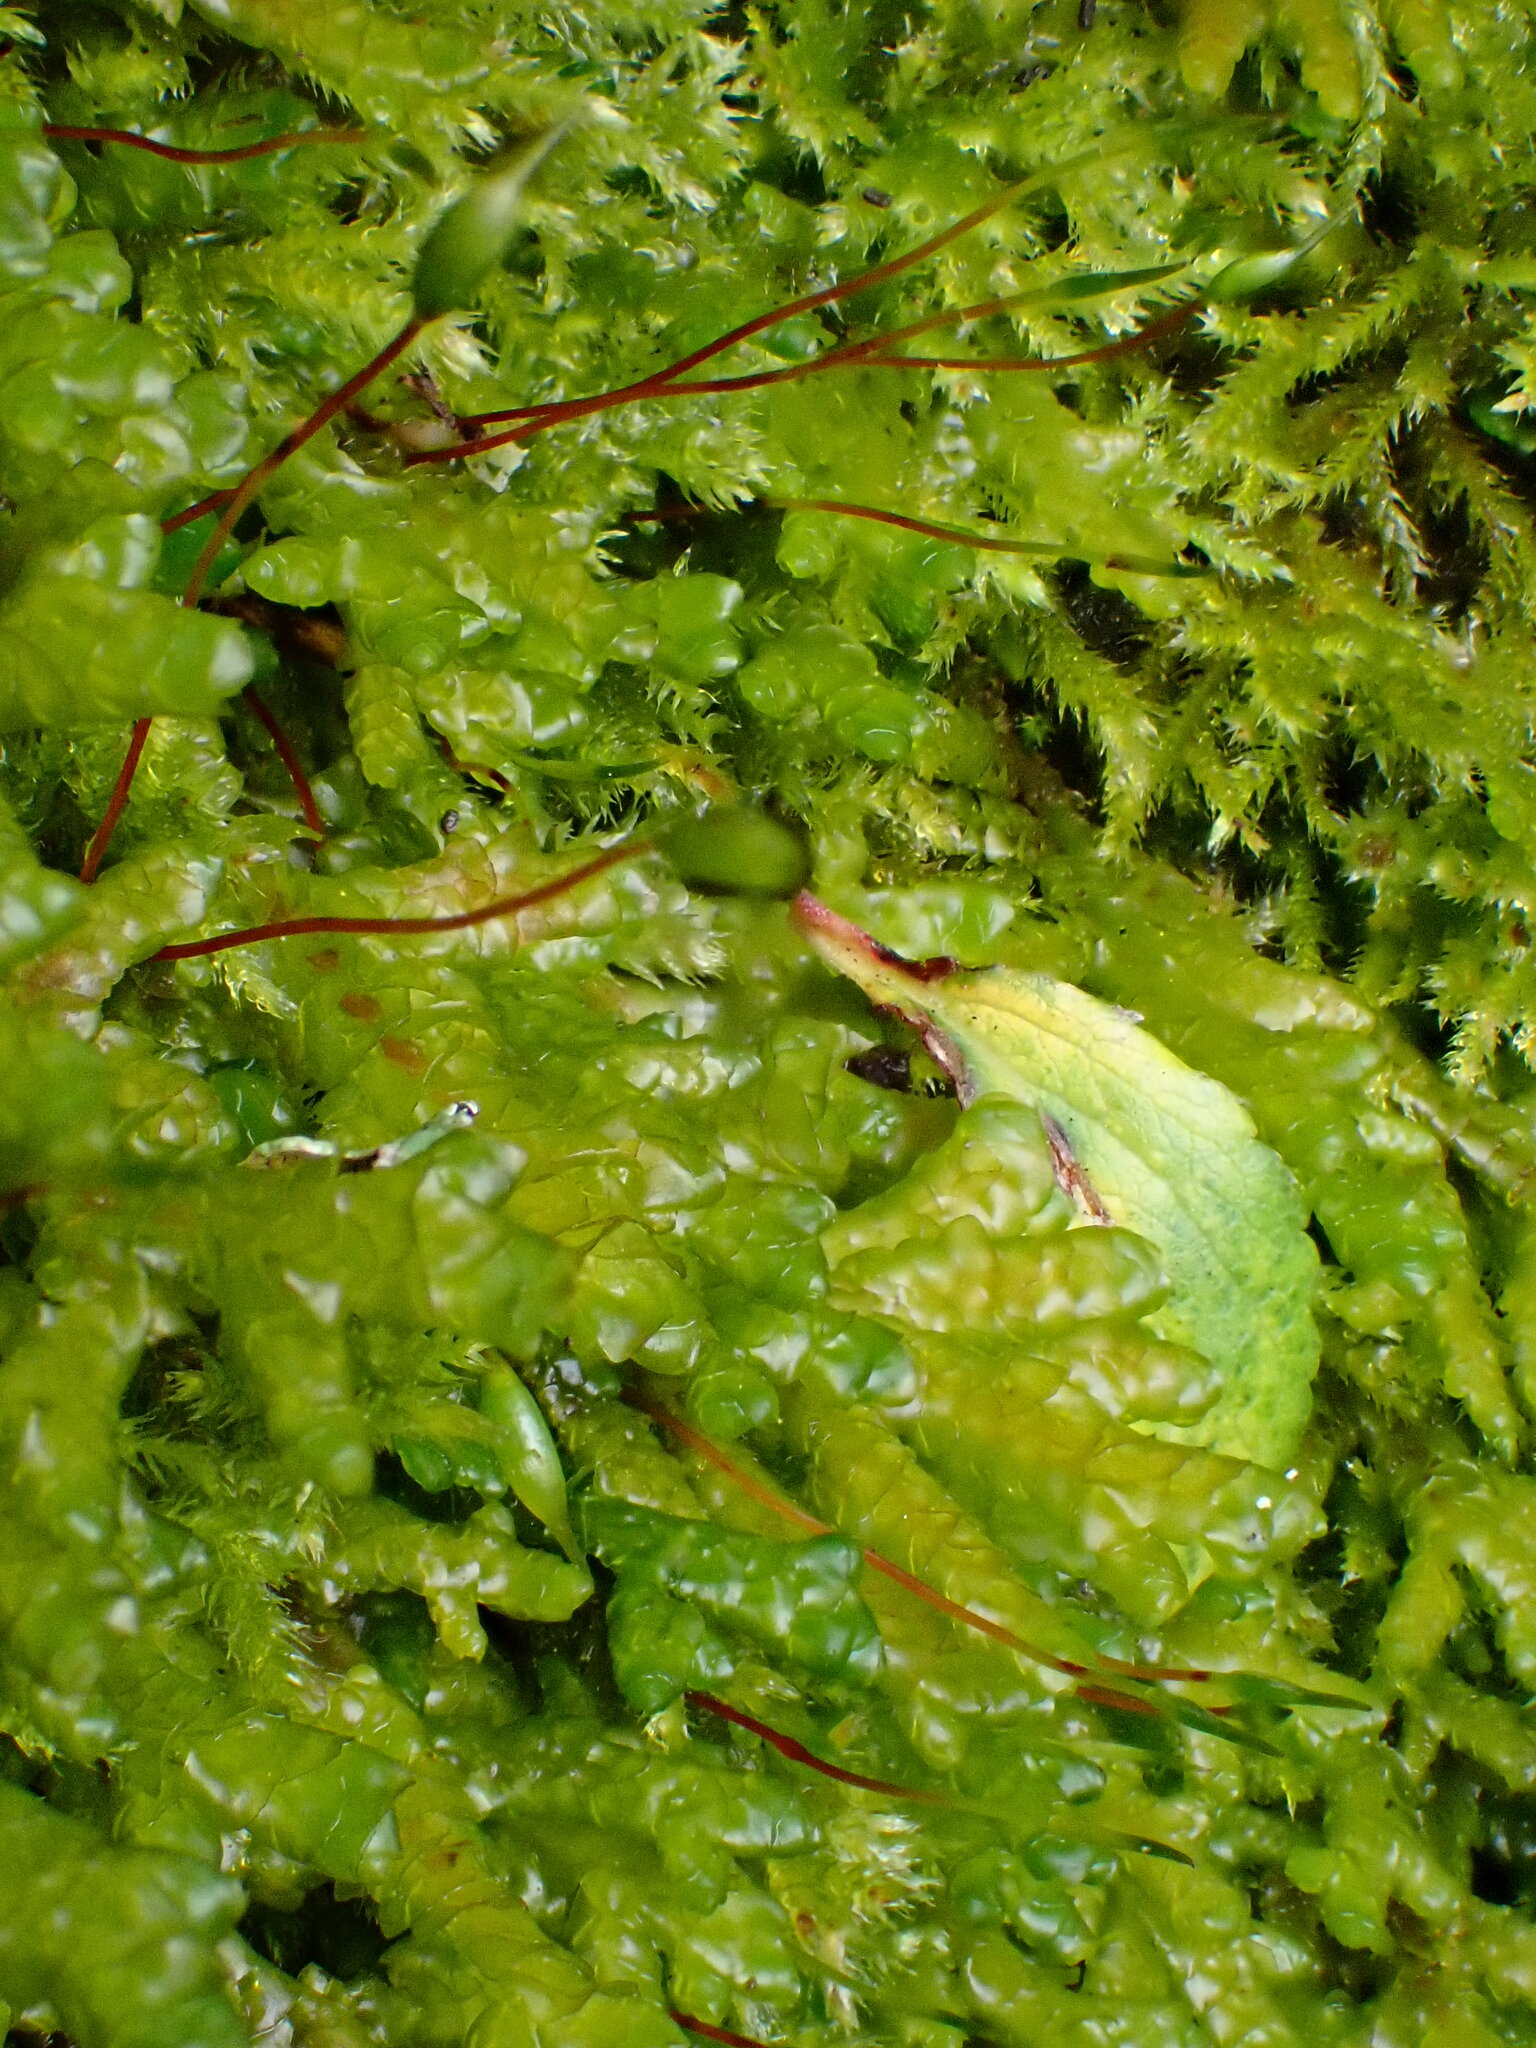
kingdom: Plantae
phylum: Marchantiophyta
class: Jungermanniopsida
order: Porellales
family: Porellaceae
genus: Porella
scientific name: Porella platyphylla
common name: Wall scalewort
